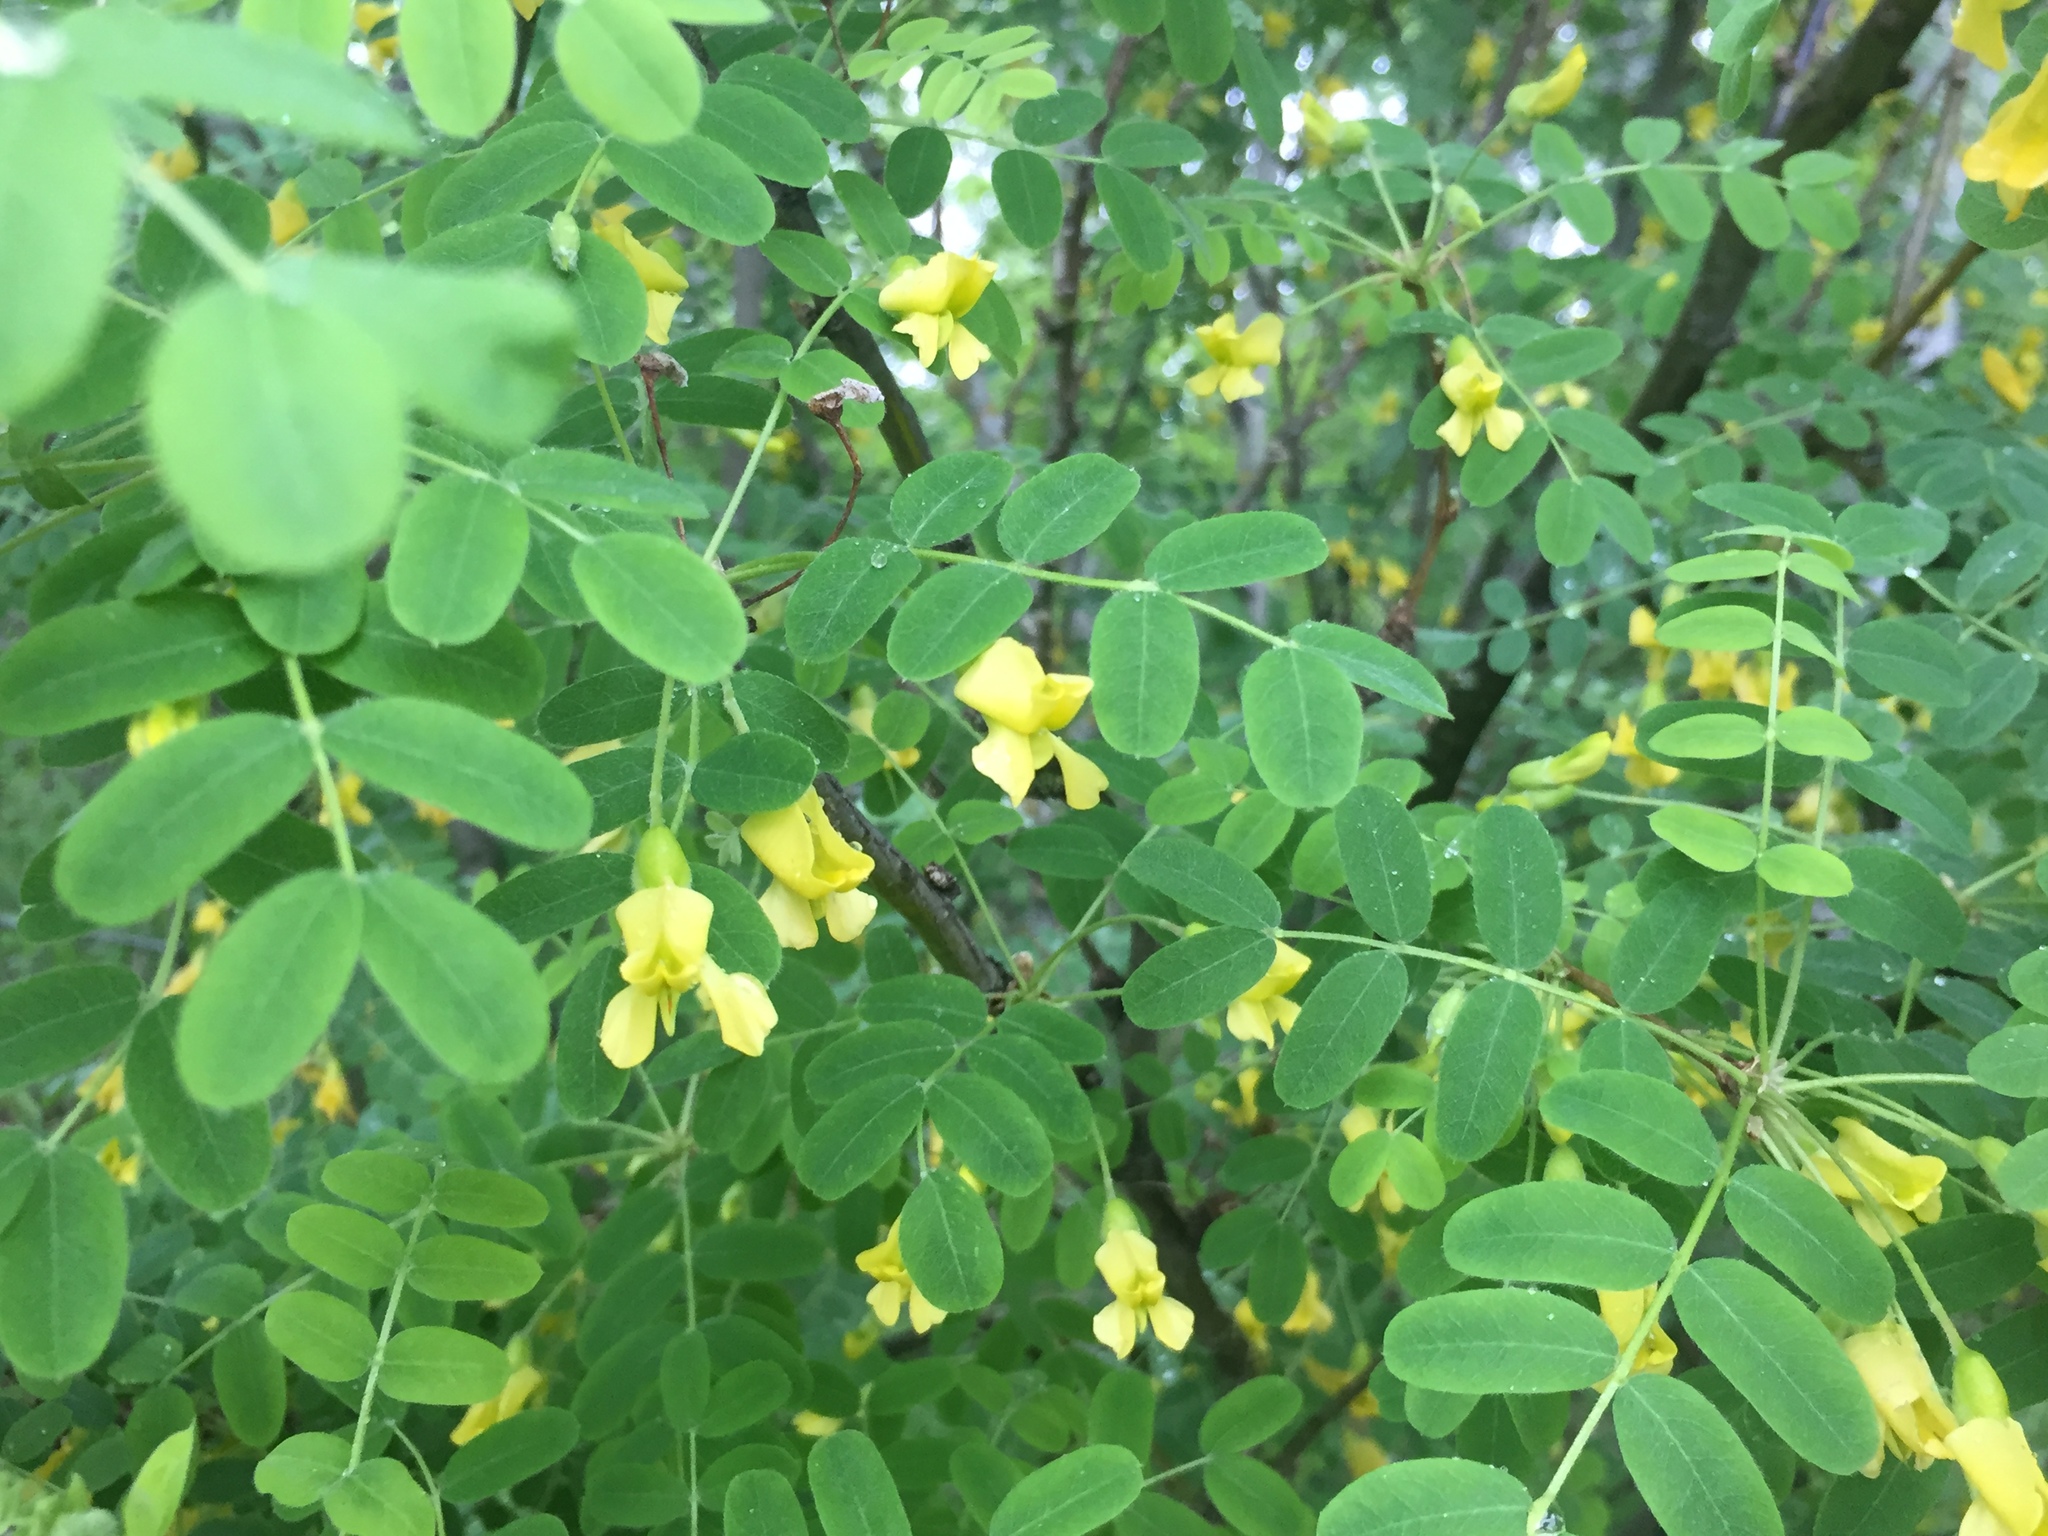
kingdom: Plantae
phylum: Tracheophyta
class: Magnoliopsida
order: Fabales
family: Fabaceae
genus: Caragana
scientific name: Caragana arborescens
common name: Siberian peashrub
